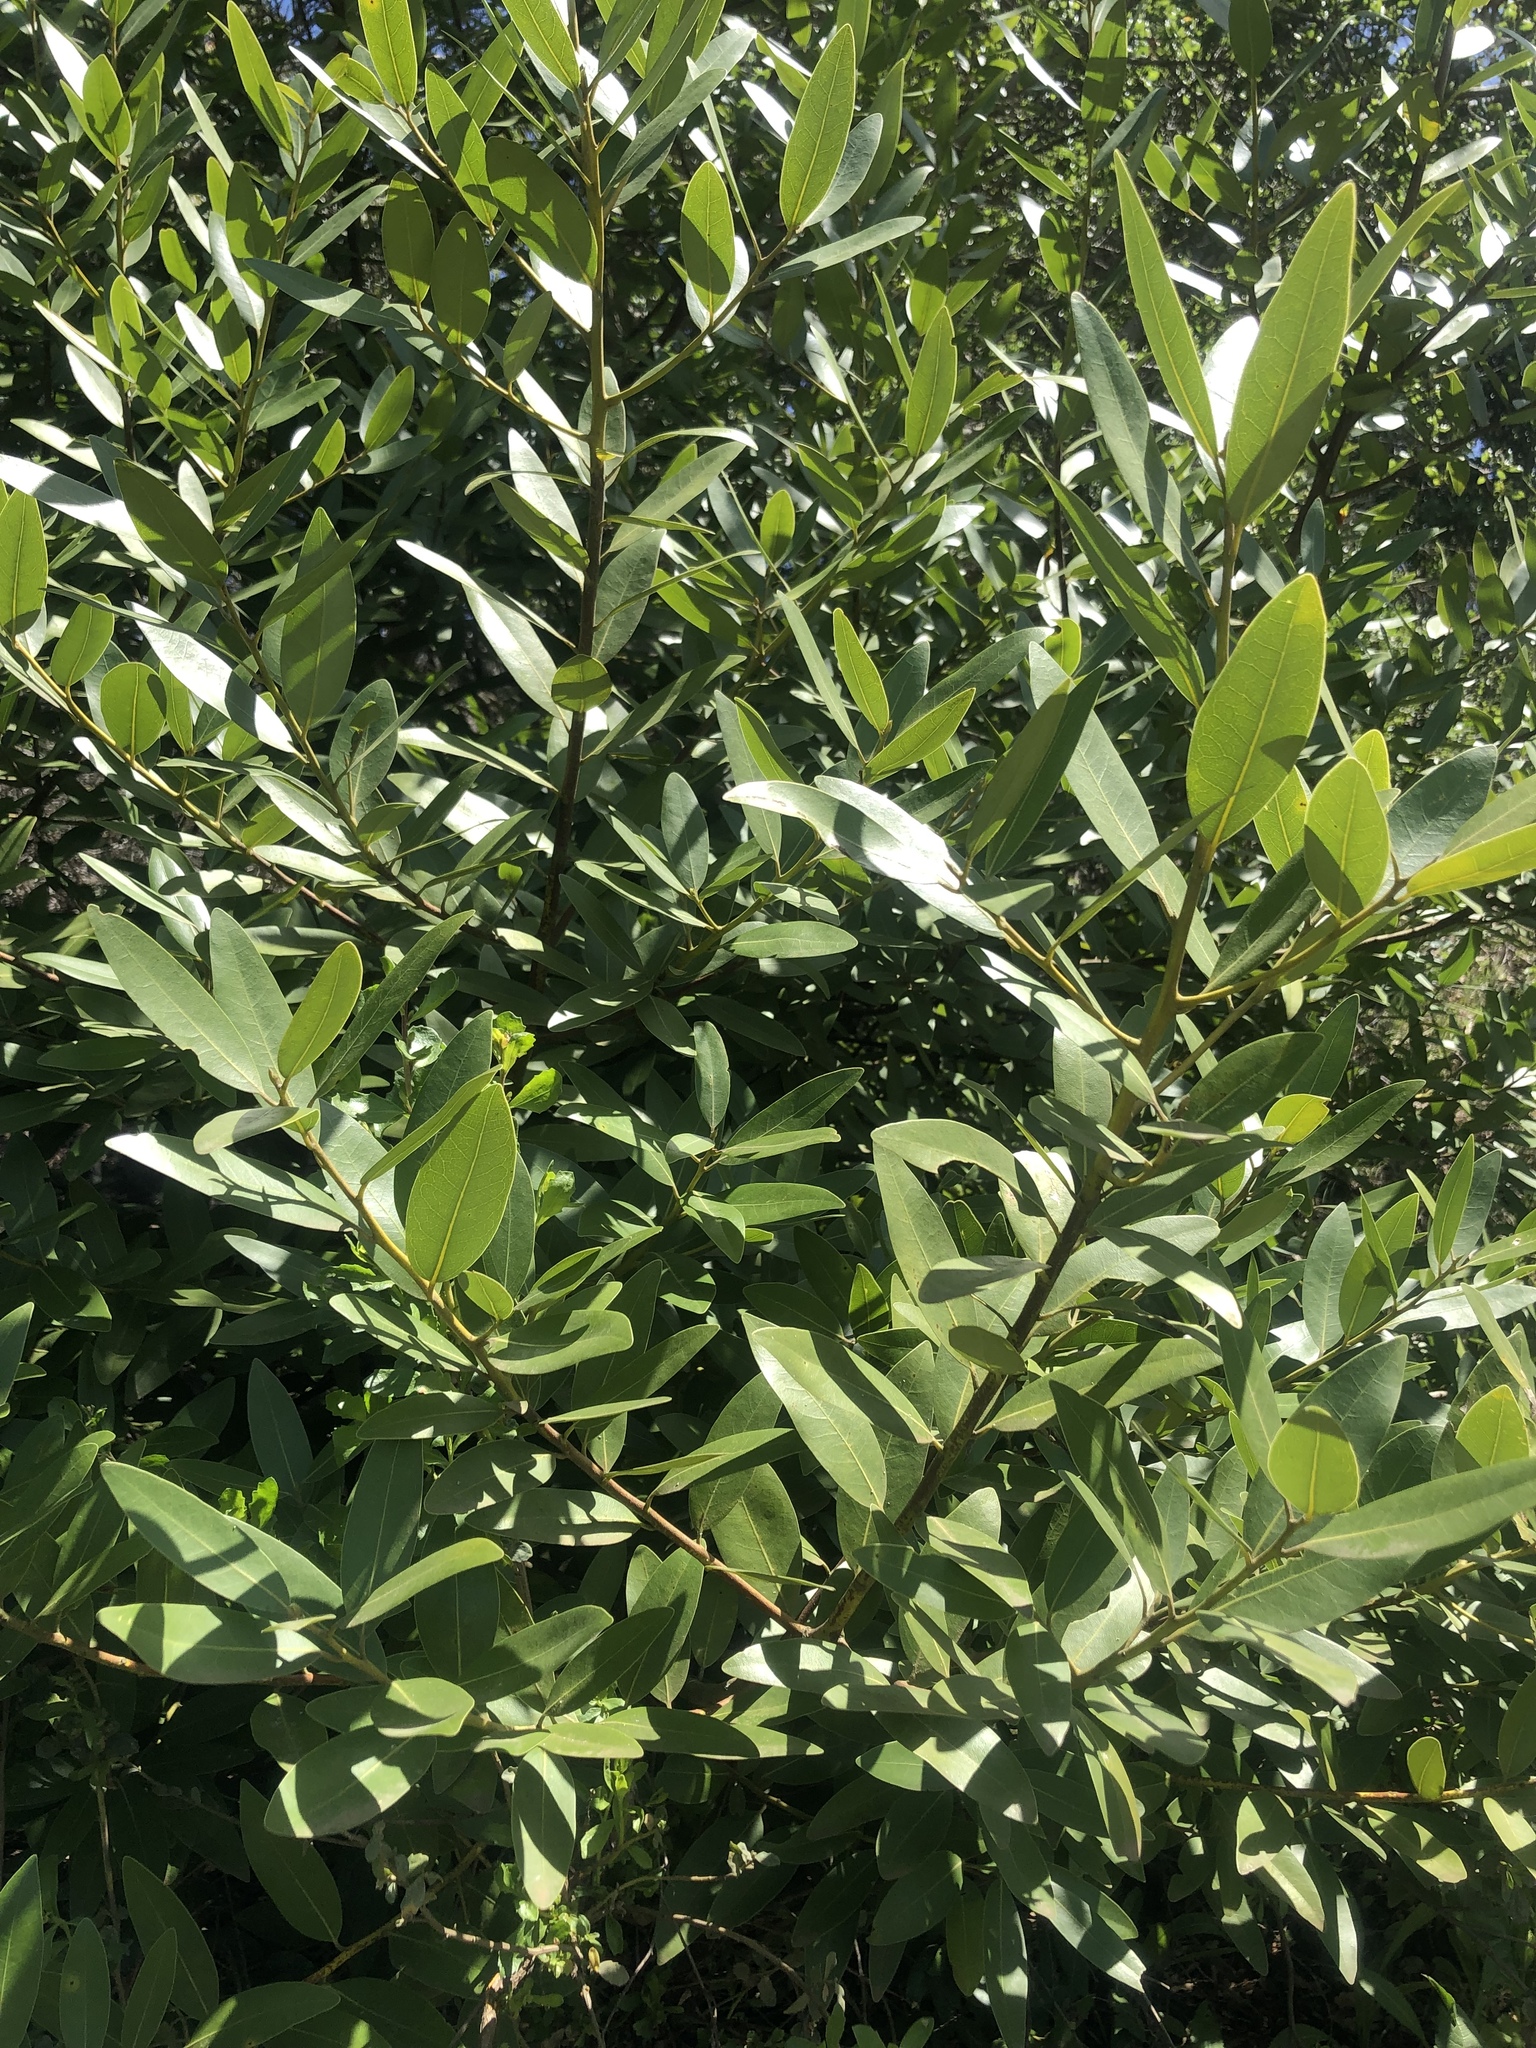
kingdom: Plantae
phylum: Tracheophyta
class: Magnoliopsida
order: Laurales
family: Lauraceae
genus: Umbellularia
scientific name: Umbellularia californica
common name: California bay
